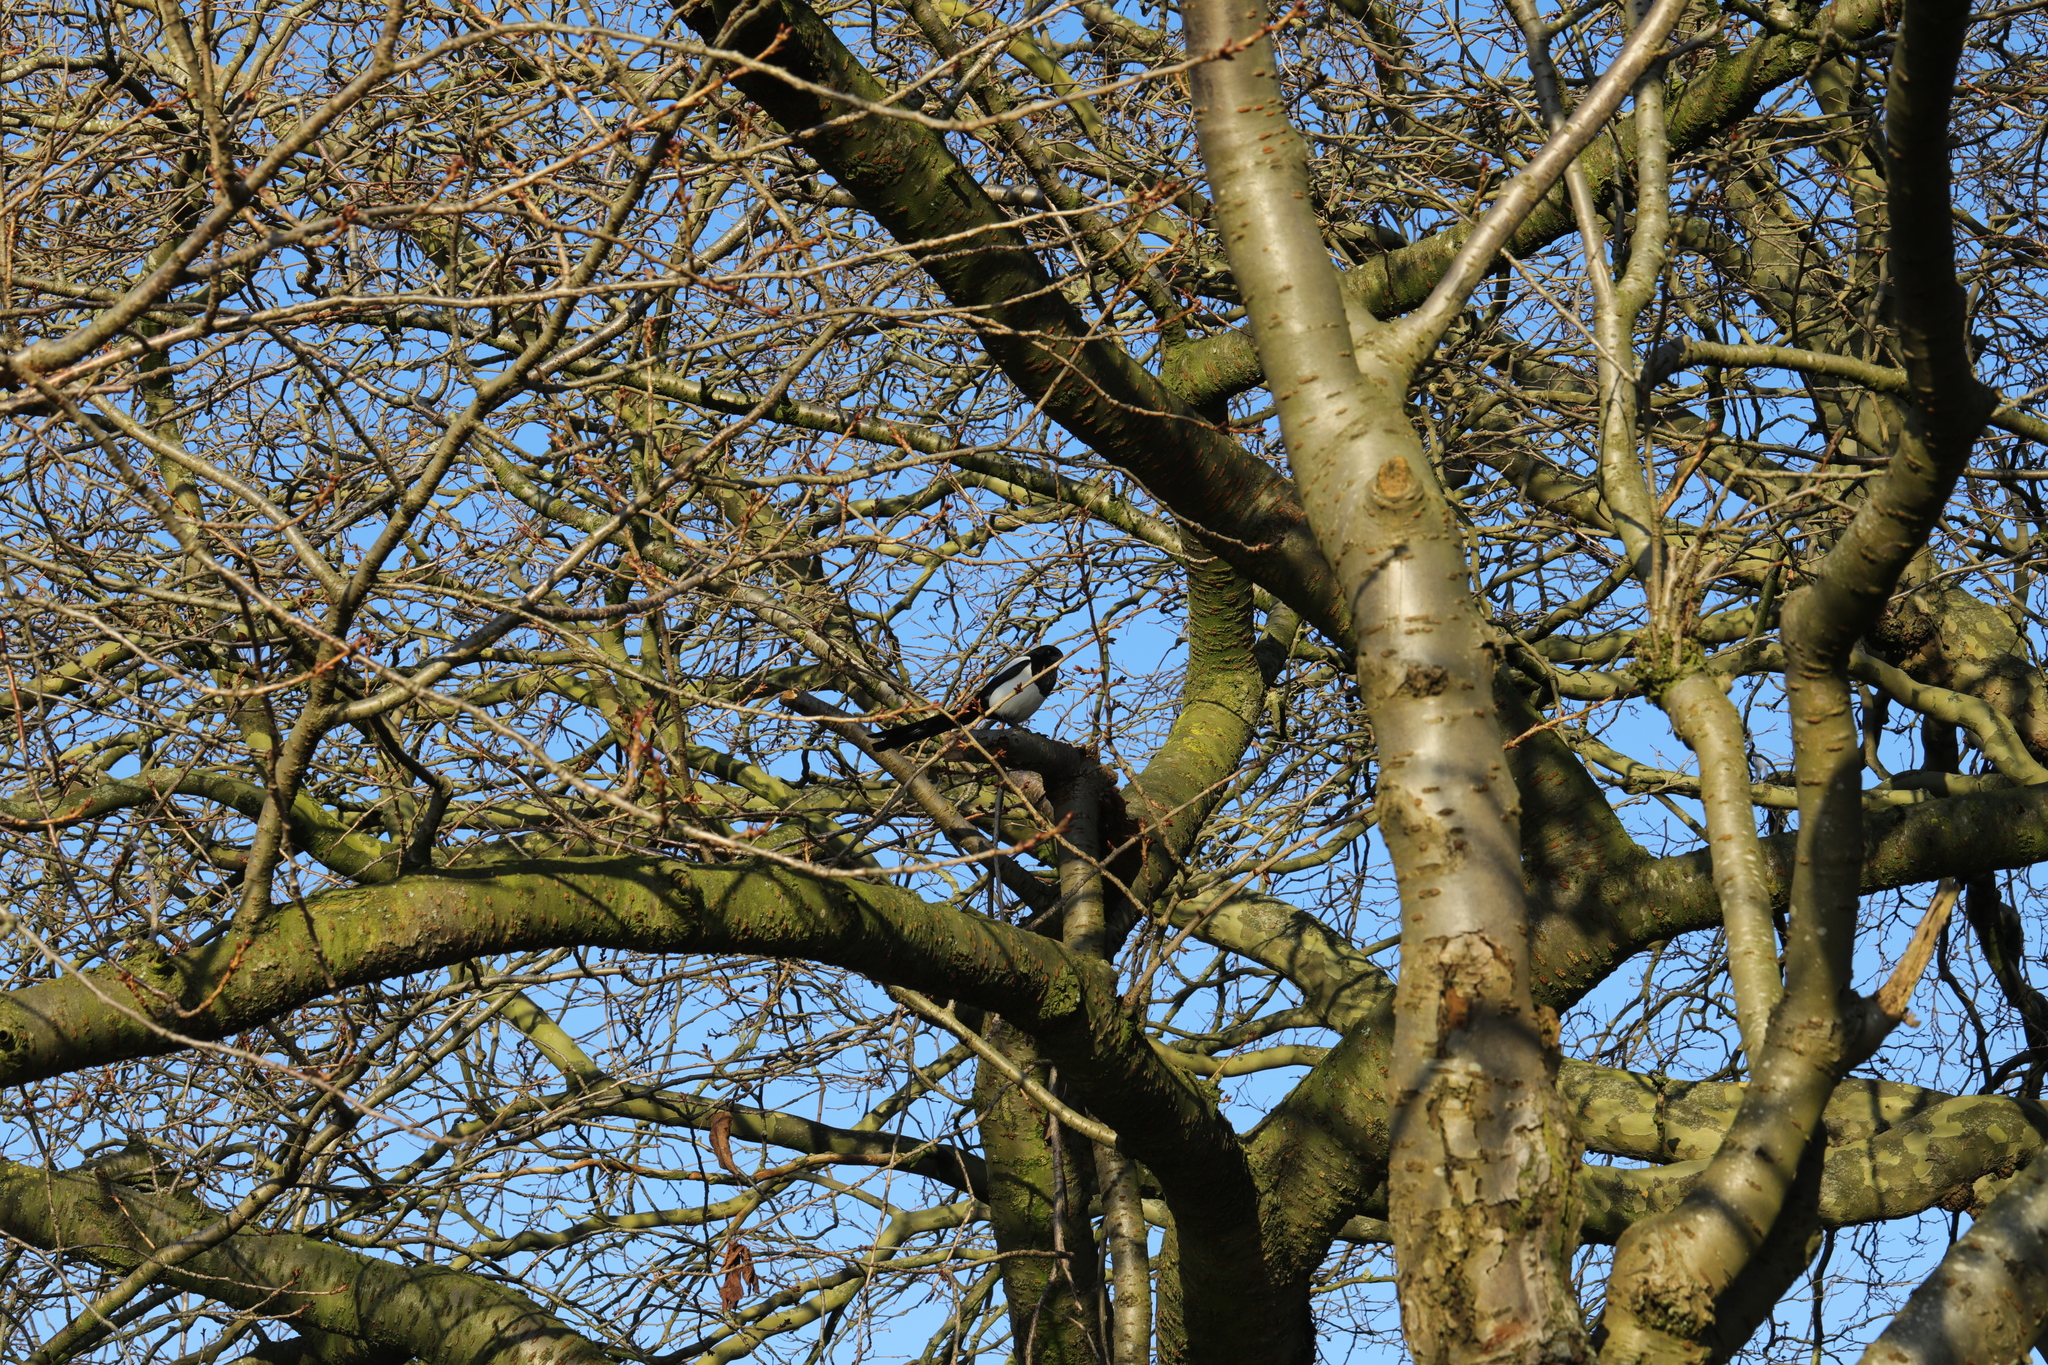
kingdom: Animalia
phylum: Chordata
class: Aves
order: Passeriformes
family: Corvidae
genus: Pica
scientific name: Pica pica
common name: Eurasian magpie
